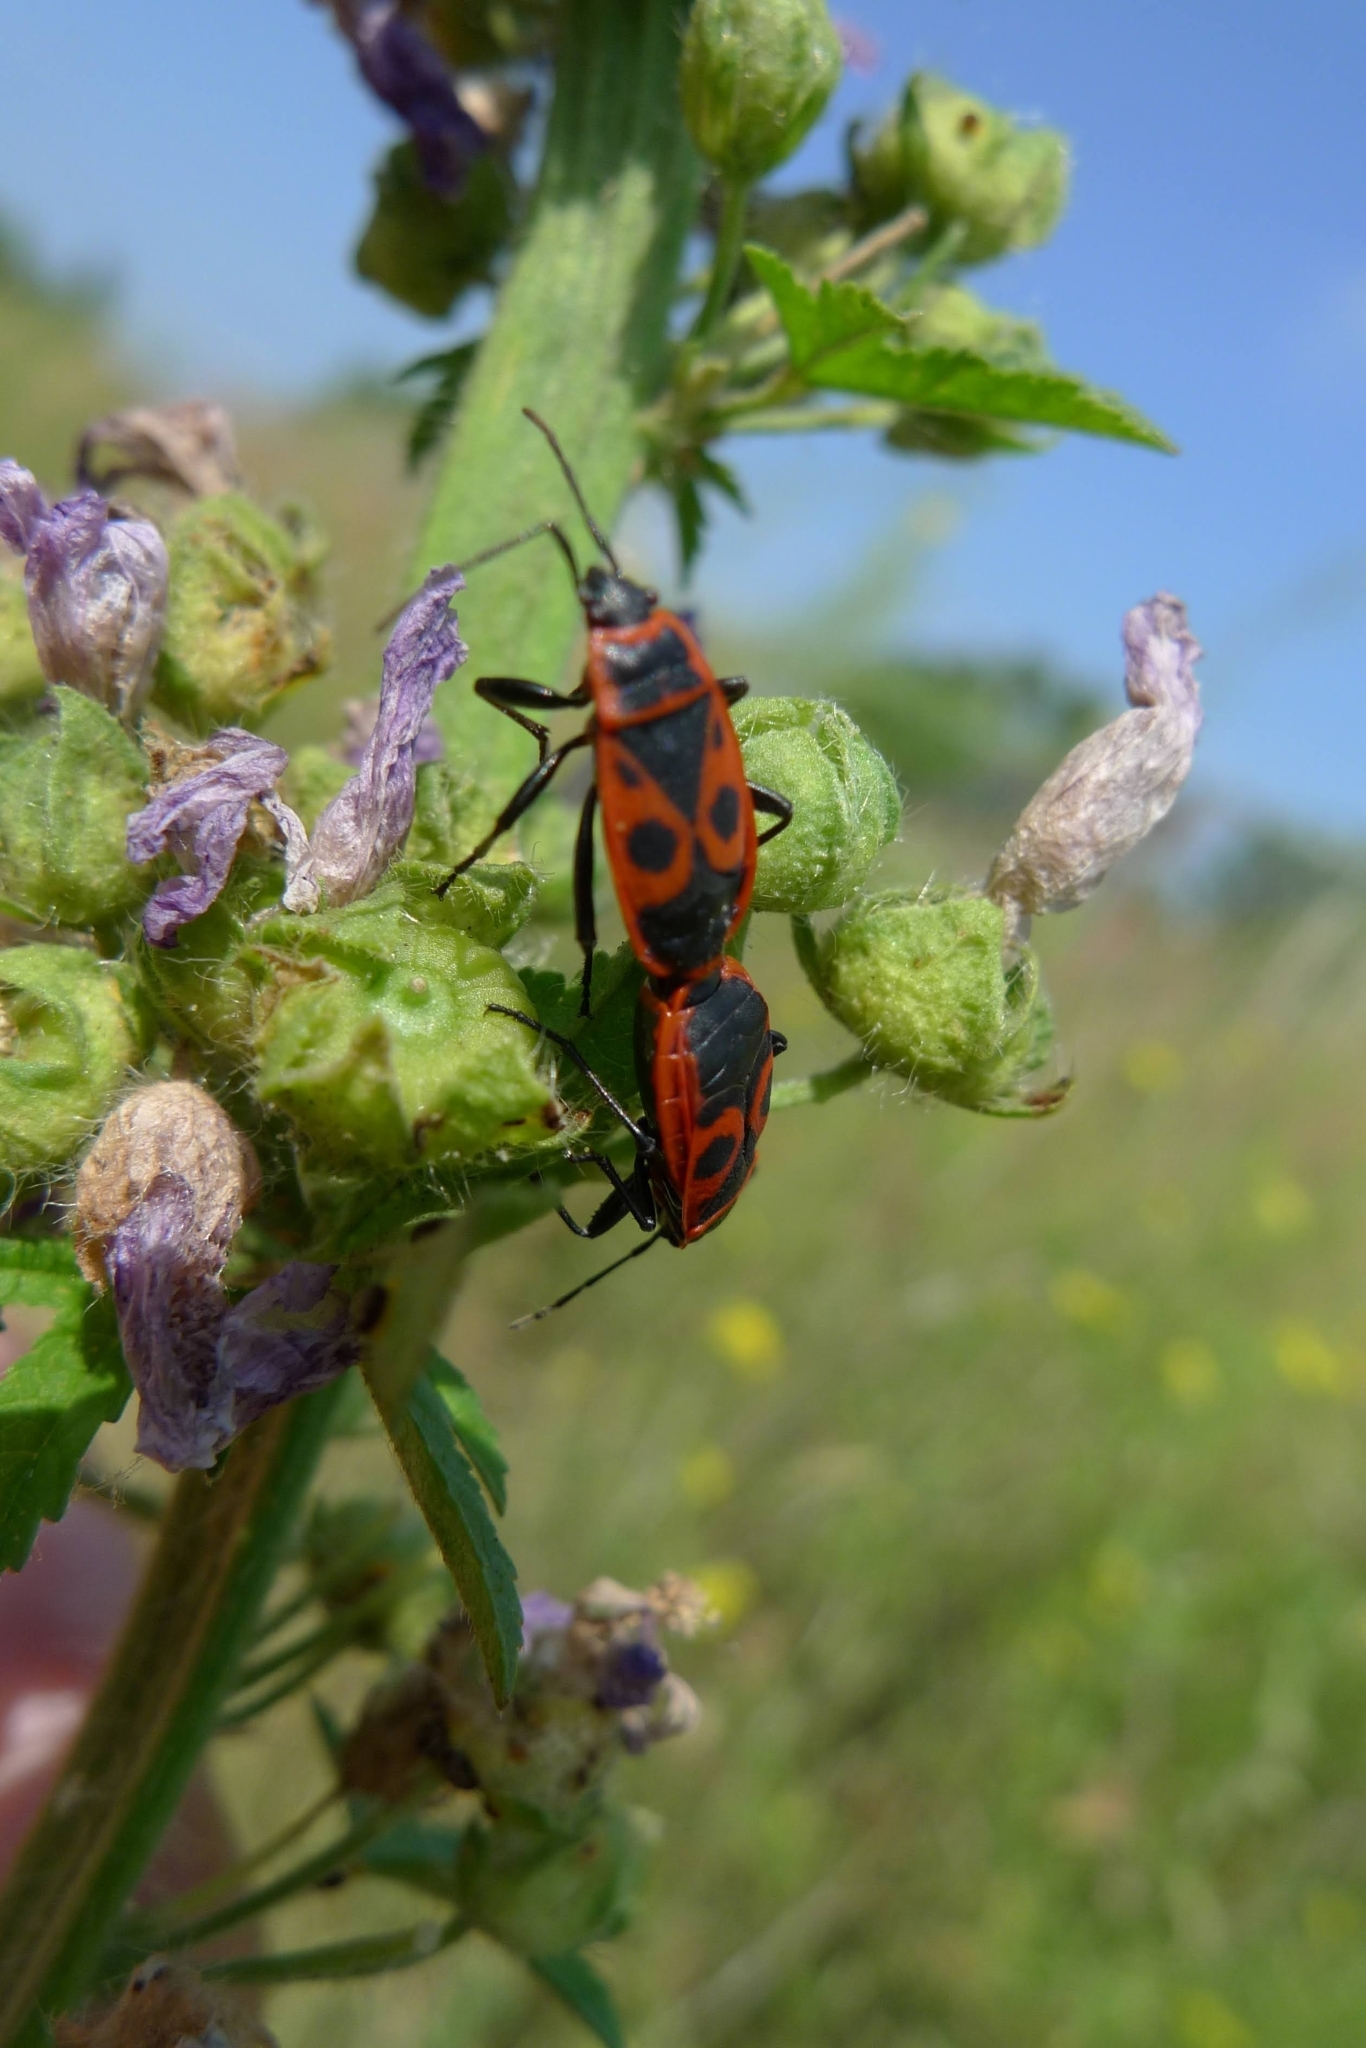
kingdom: Animalia
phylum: Arthropoda
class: Insecta
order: Hemiptera
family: Pyrrhocoridae
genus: Pyrrhocoris
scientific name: Pyrrhocoris apterus
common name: Firebug
